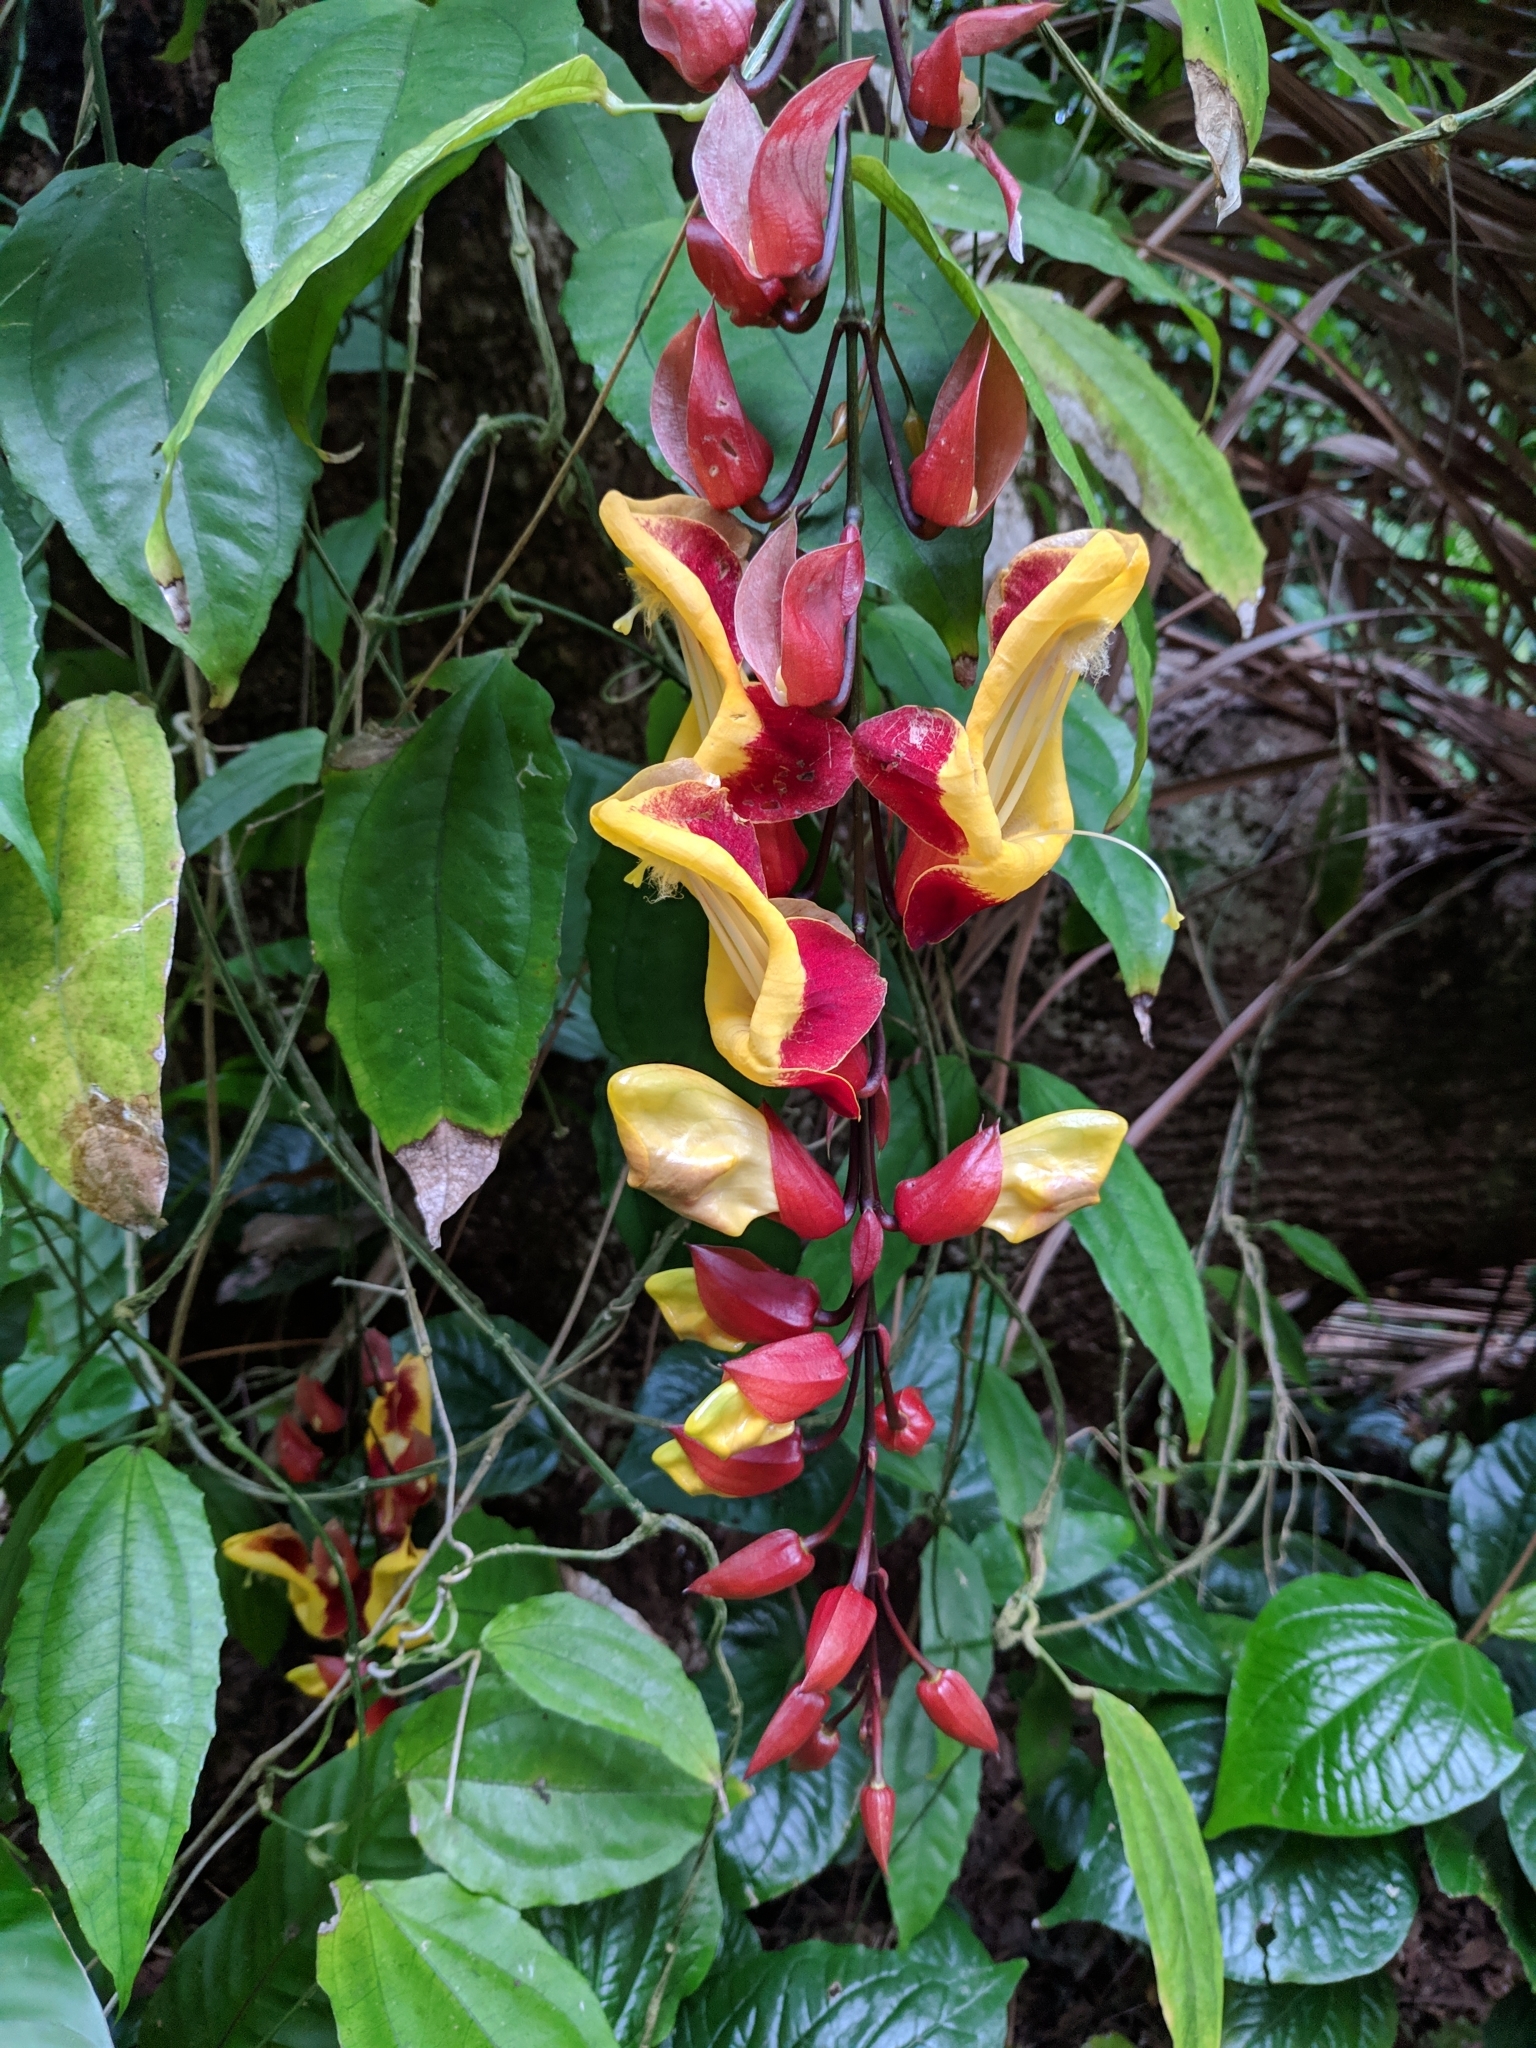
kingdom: Plantae
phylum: Tracheophyta
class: Magnoliopsida
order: Lamiales
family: Acanthaceae
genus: Thunbergia
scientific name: Thunbergia mysorensis
